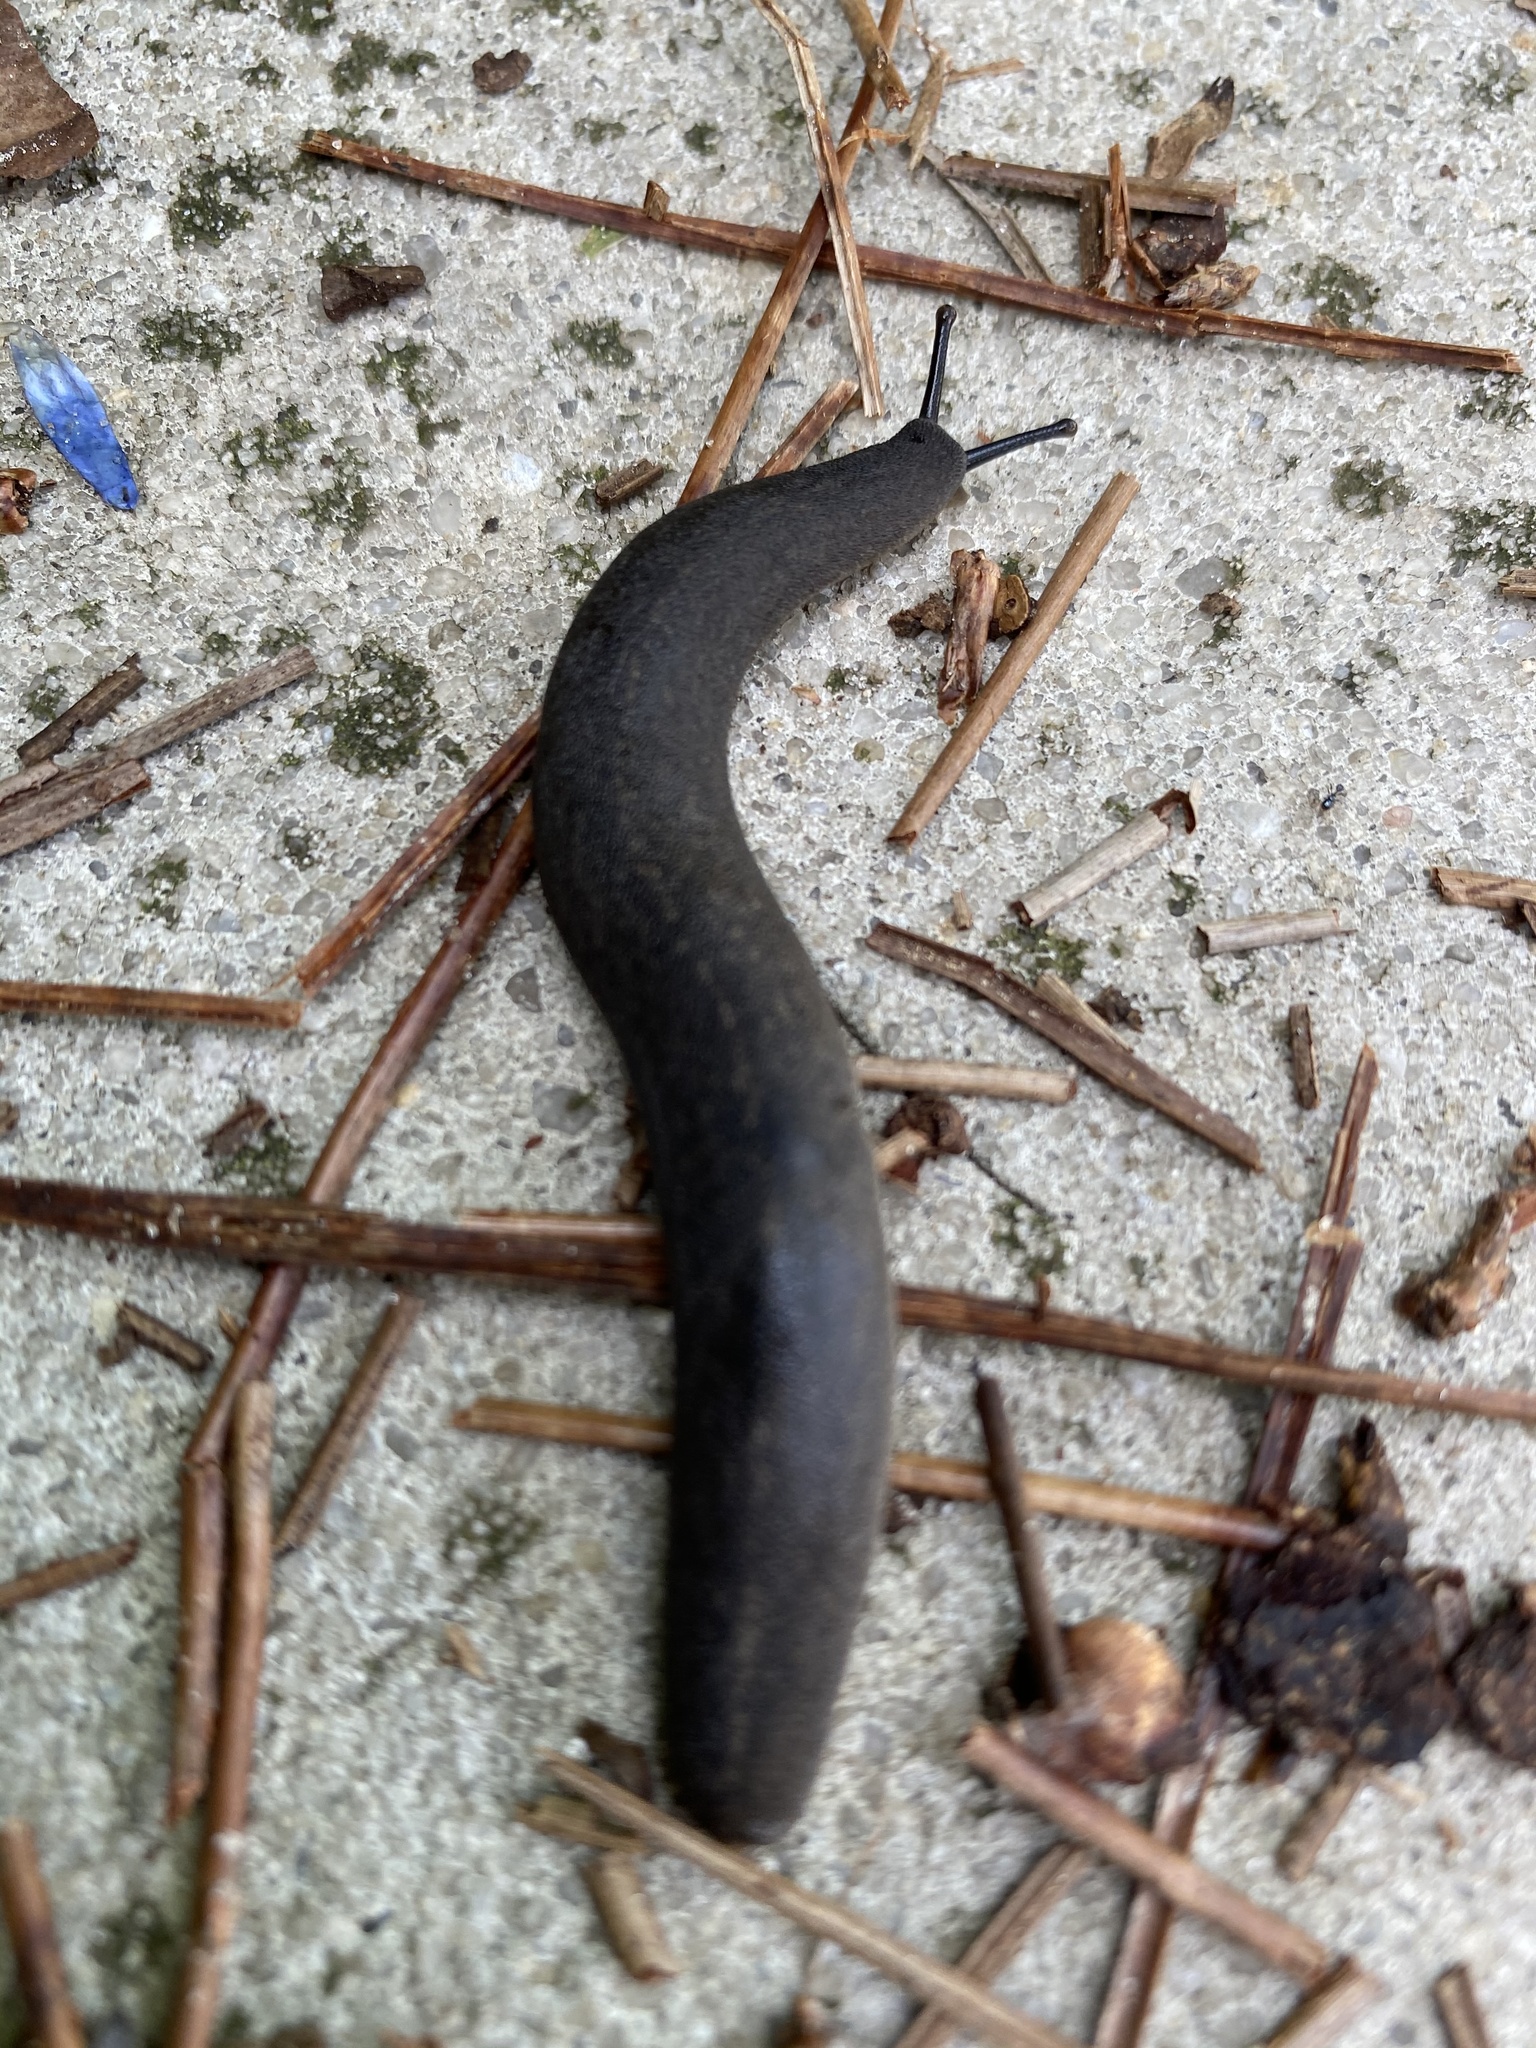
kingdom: Animalia
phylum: Mollusca
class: Gastropoda
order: Systellommatophora
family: Veronicellidae
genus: Belocaulus
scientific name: Belocaulus angustipes
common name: Black velvet leatherleaf slug
